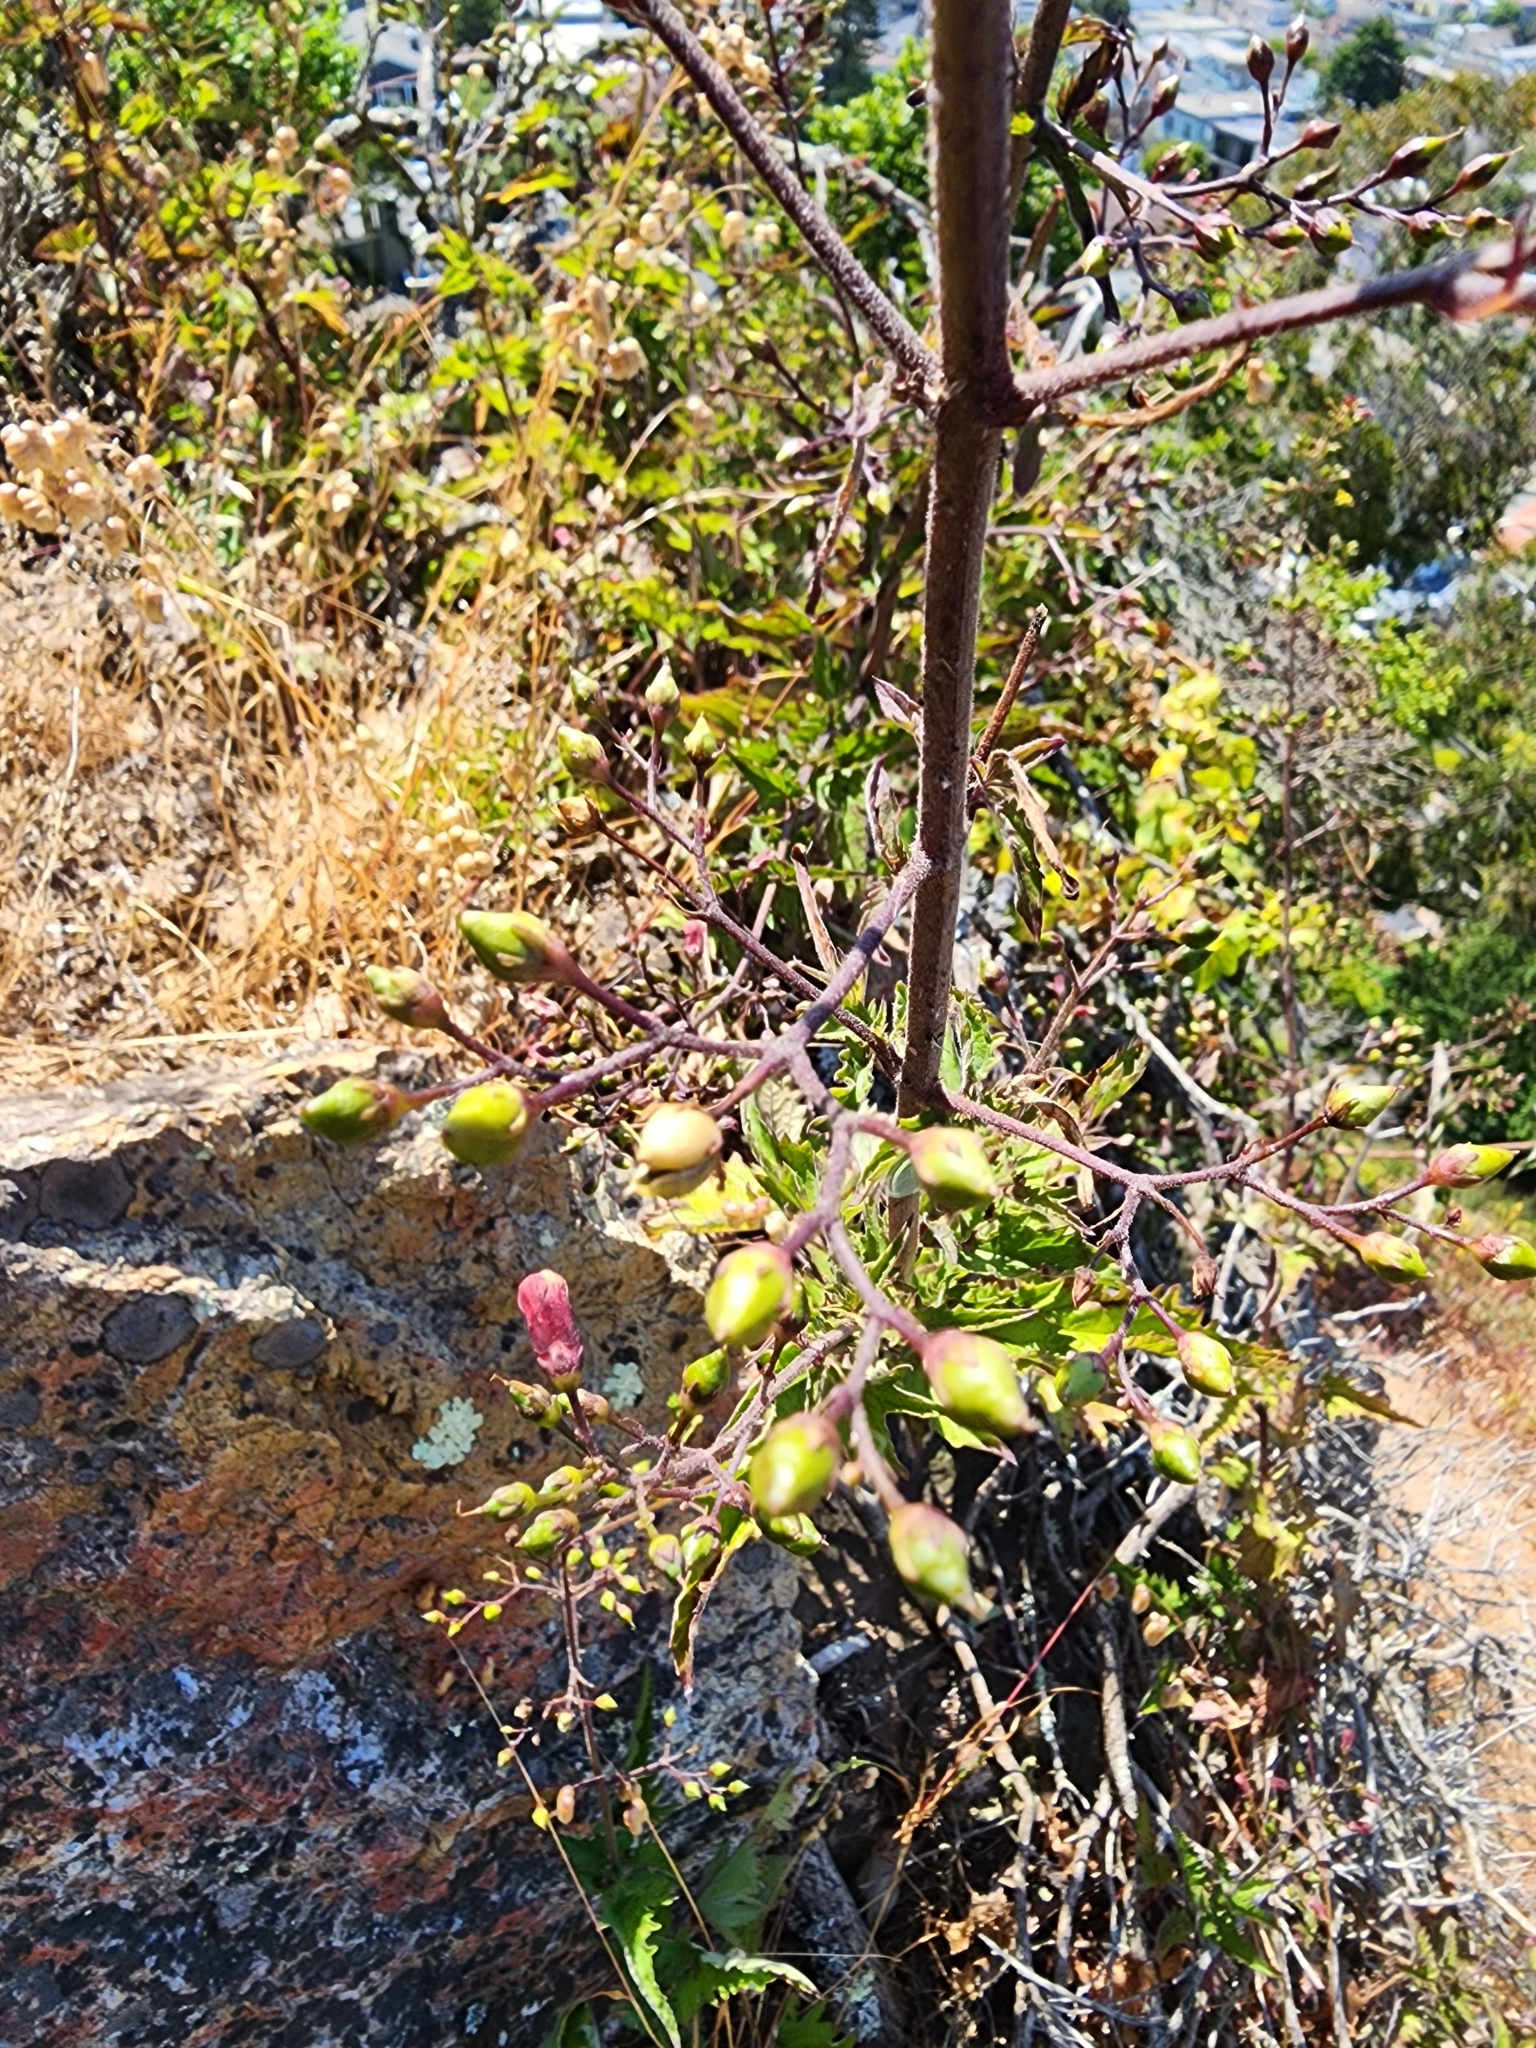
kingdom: Plantae
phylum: Tracheophyta
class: Magnoliopsida
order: Lamiales
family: Scrophulariaceae
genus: Scrophularia
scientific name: Scrophularia californica
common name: California figwort
